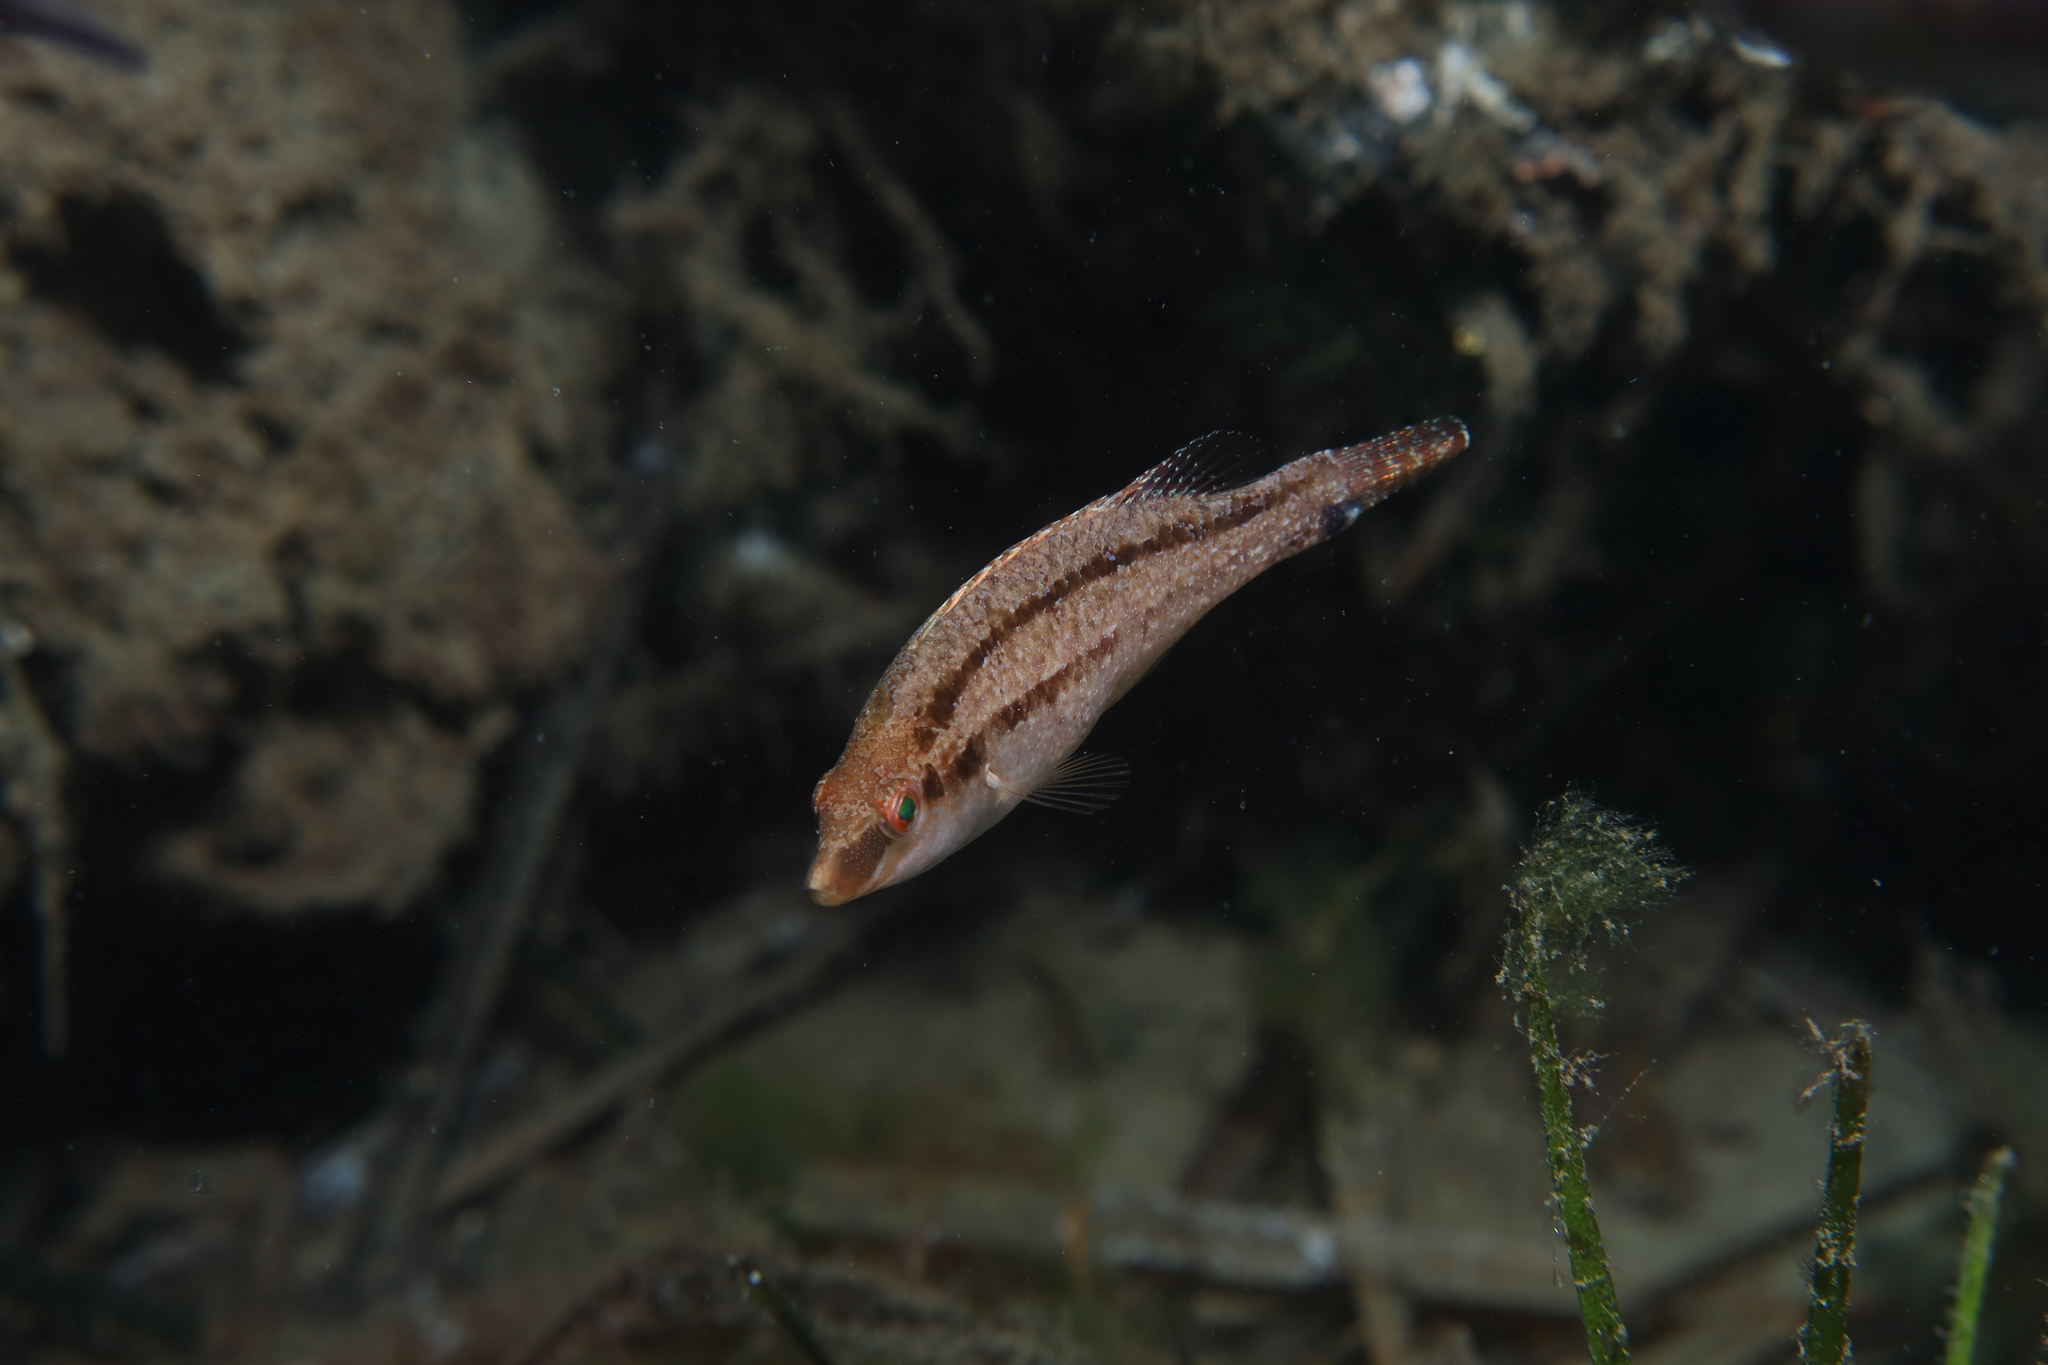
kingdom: Animalia
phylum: Chordata
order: Perciformes
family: Labridae
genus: Symphodus
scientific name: Symphodus cinereus
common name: Grey wrasse
